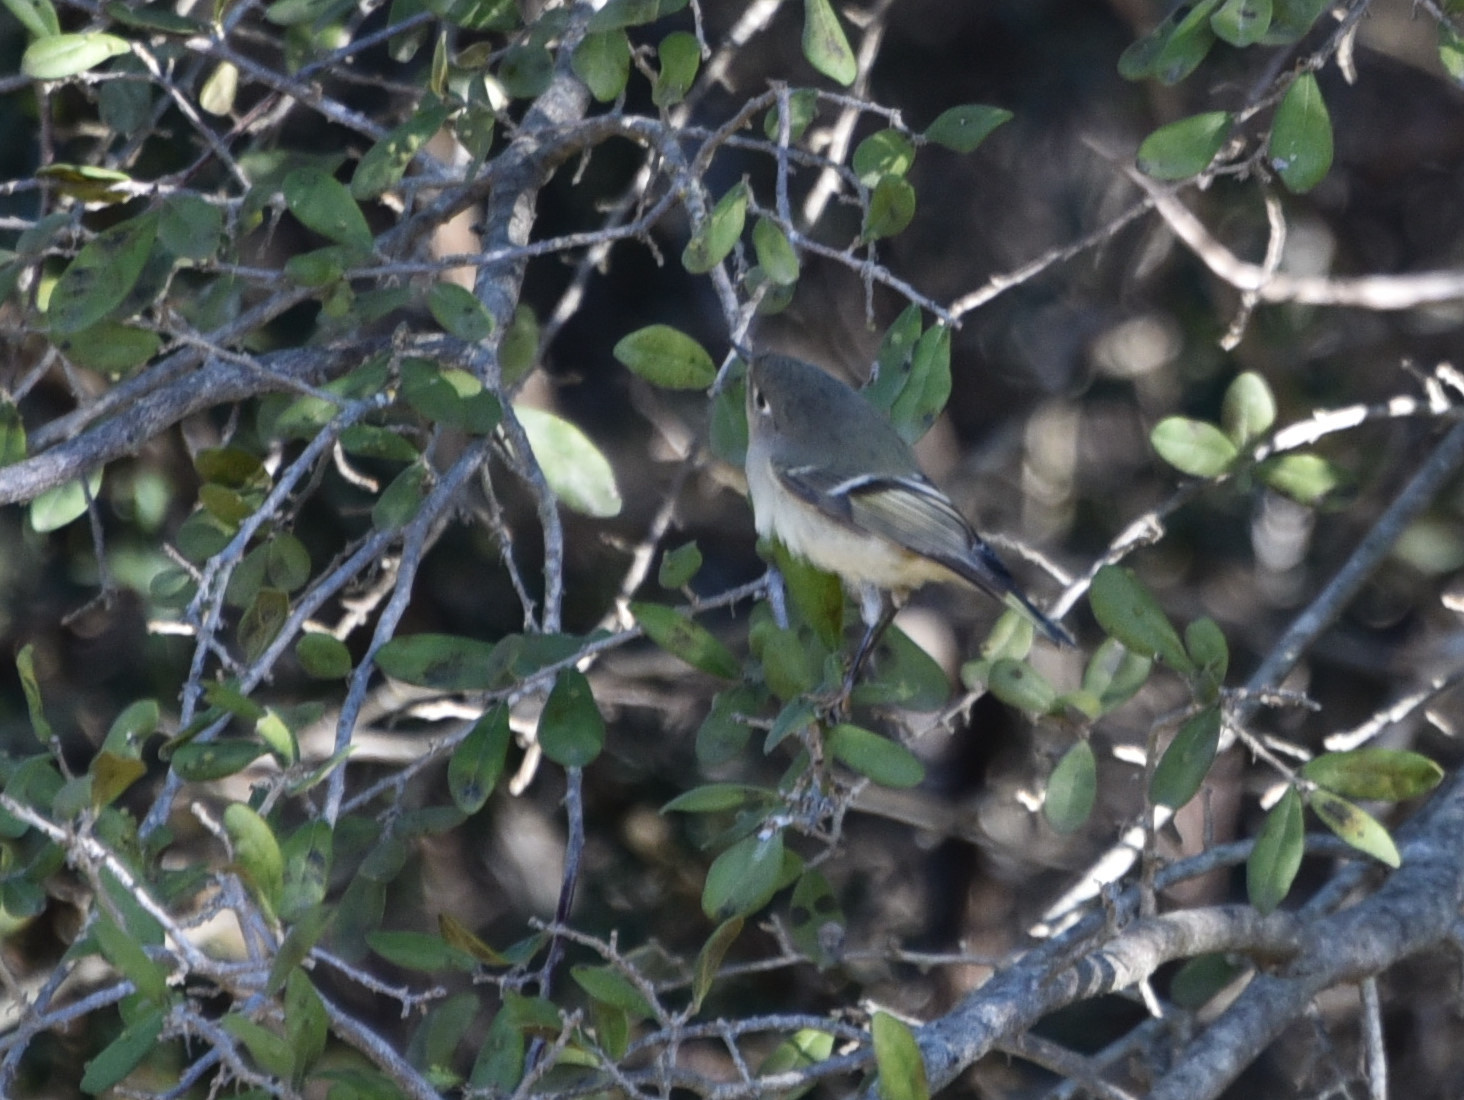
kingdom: Animalia
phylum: Chordata
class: Aves
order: Passeriformes
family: Regulidae
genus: Regulus
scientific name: Regulus calendula
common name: Ruby-crowned kinglet
